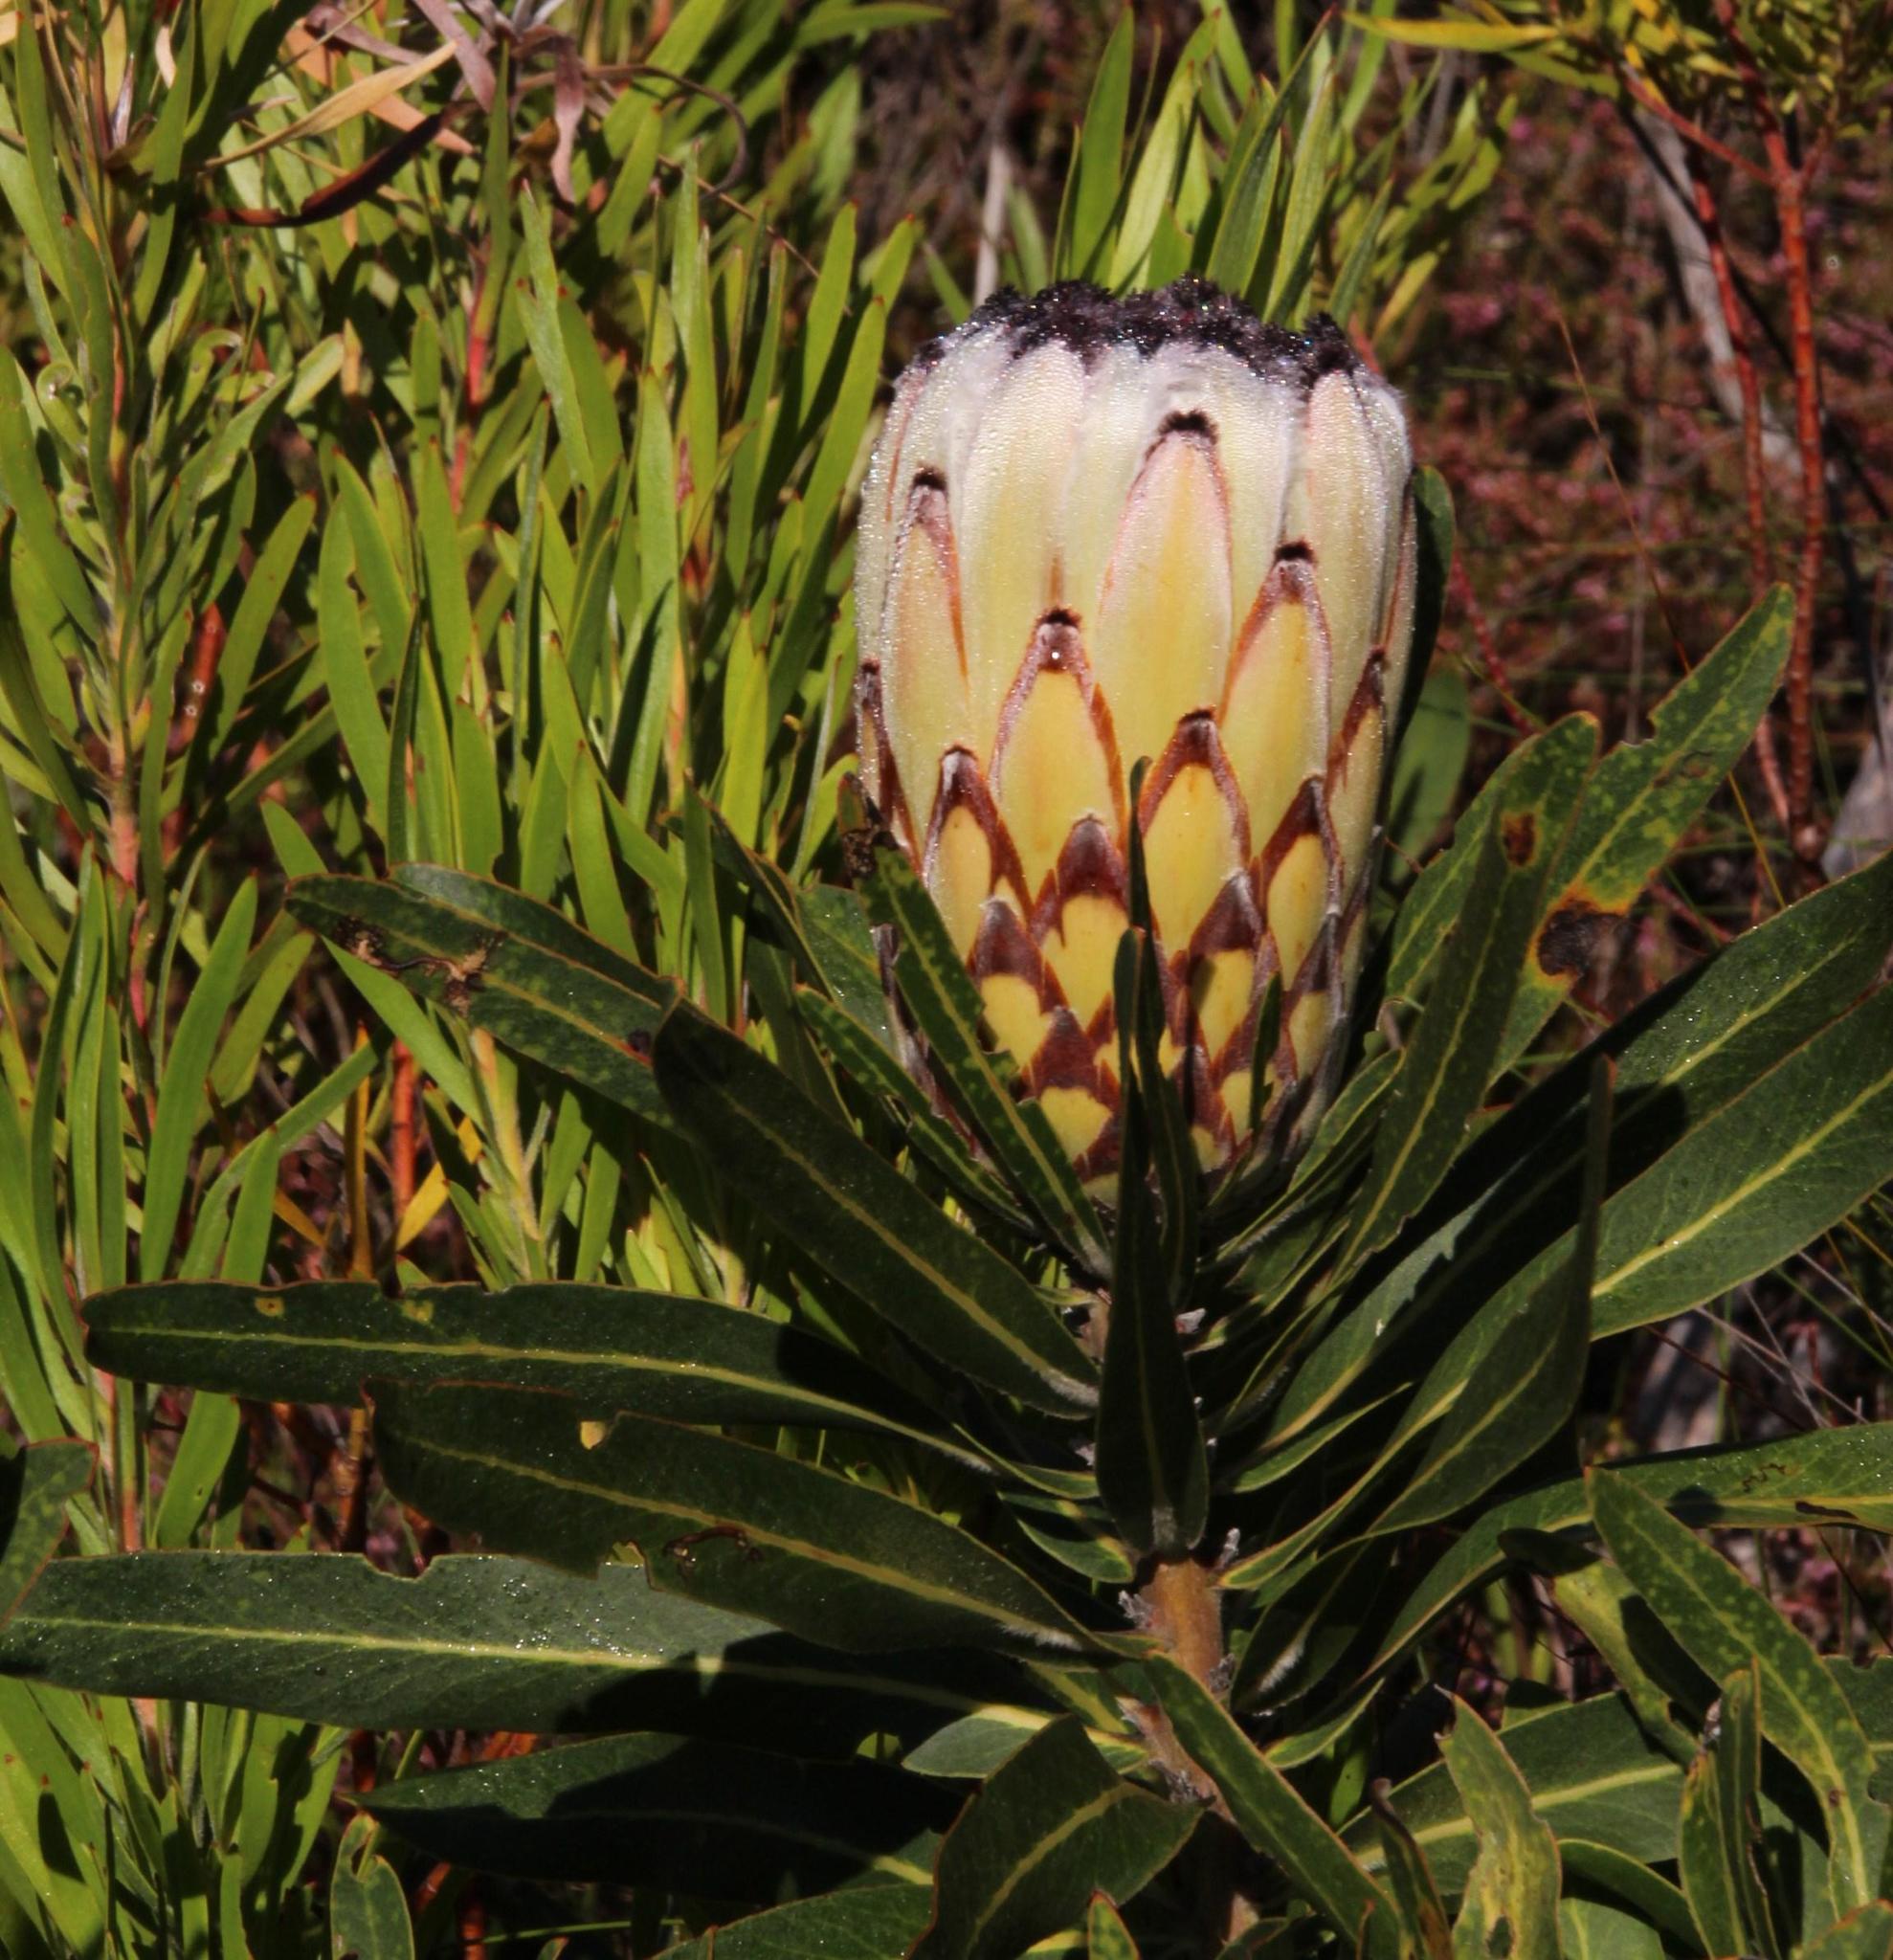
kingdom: Plantae
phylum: Tracheophyta
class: Magnoliopsida
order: Proteales
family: Proteaceae
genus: Protea
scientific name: Protea neriifolia
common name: Blue sugarbush
